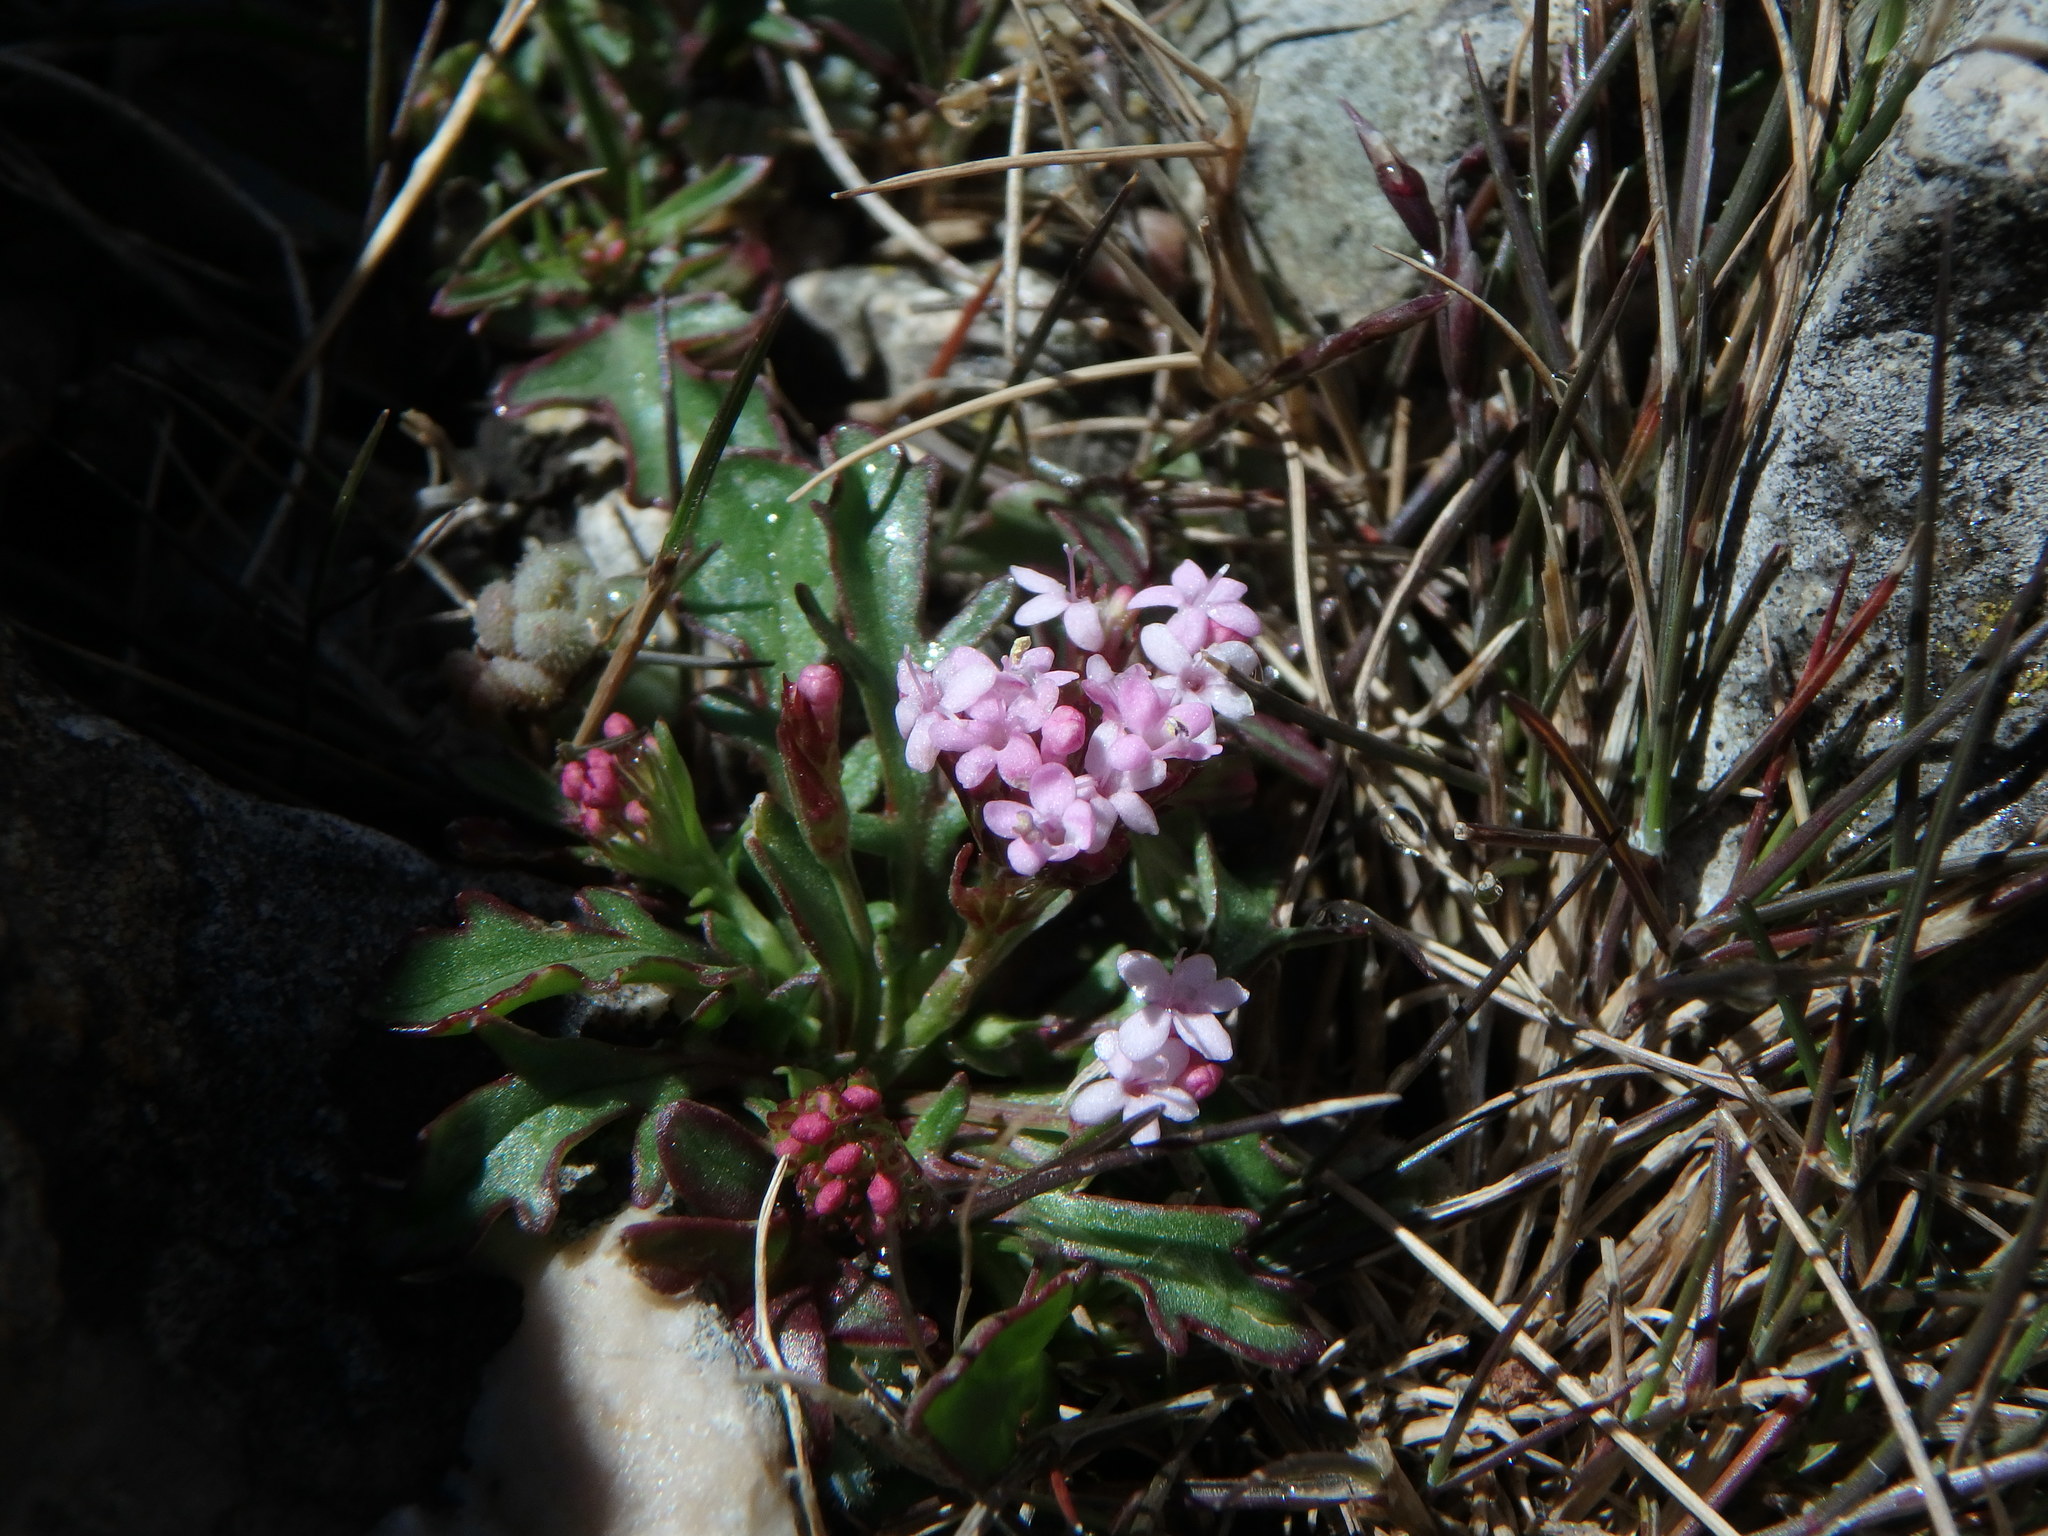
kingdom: Plantae
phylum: Tracheophyta
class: Magnoliopsida
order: Dipsacales
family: Caprifoliaceae
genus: Centranthus
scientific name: Centranthus calcitrapae
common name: Annual valerian
